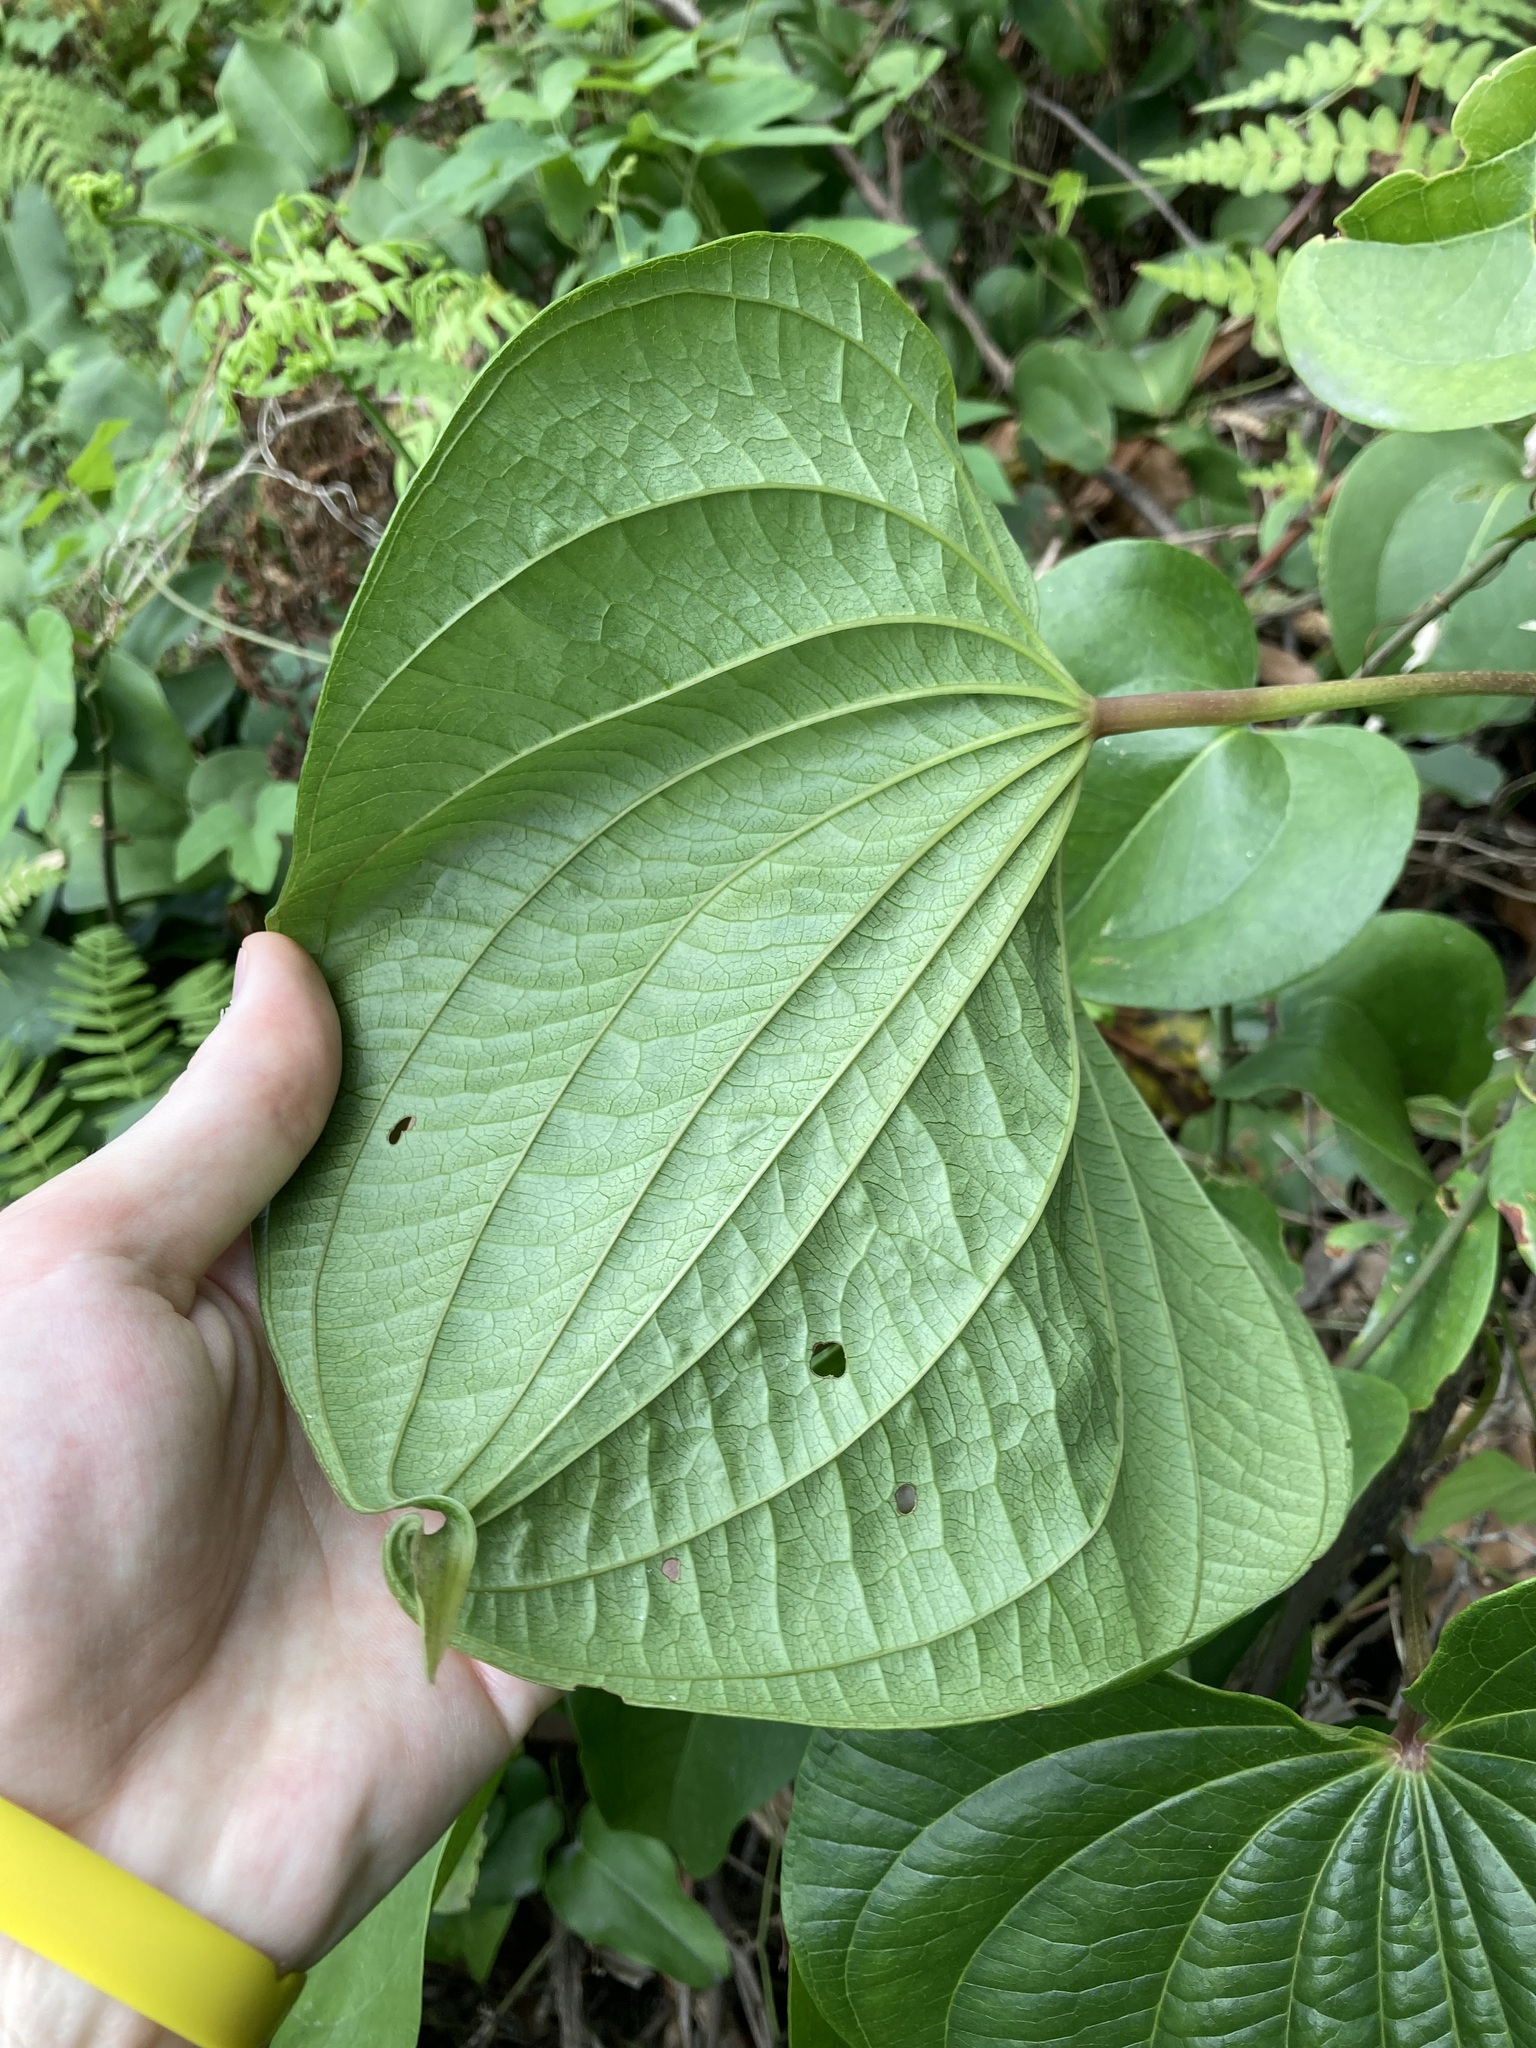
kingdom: Plantae
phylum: Tracheophyta
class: Liliopsida
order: Dioscoreales
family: Dioscoreaceae
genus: Dioscorea
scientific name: Dioscorea bulbifera
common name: Air yam
